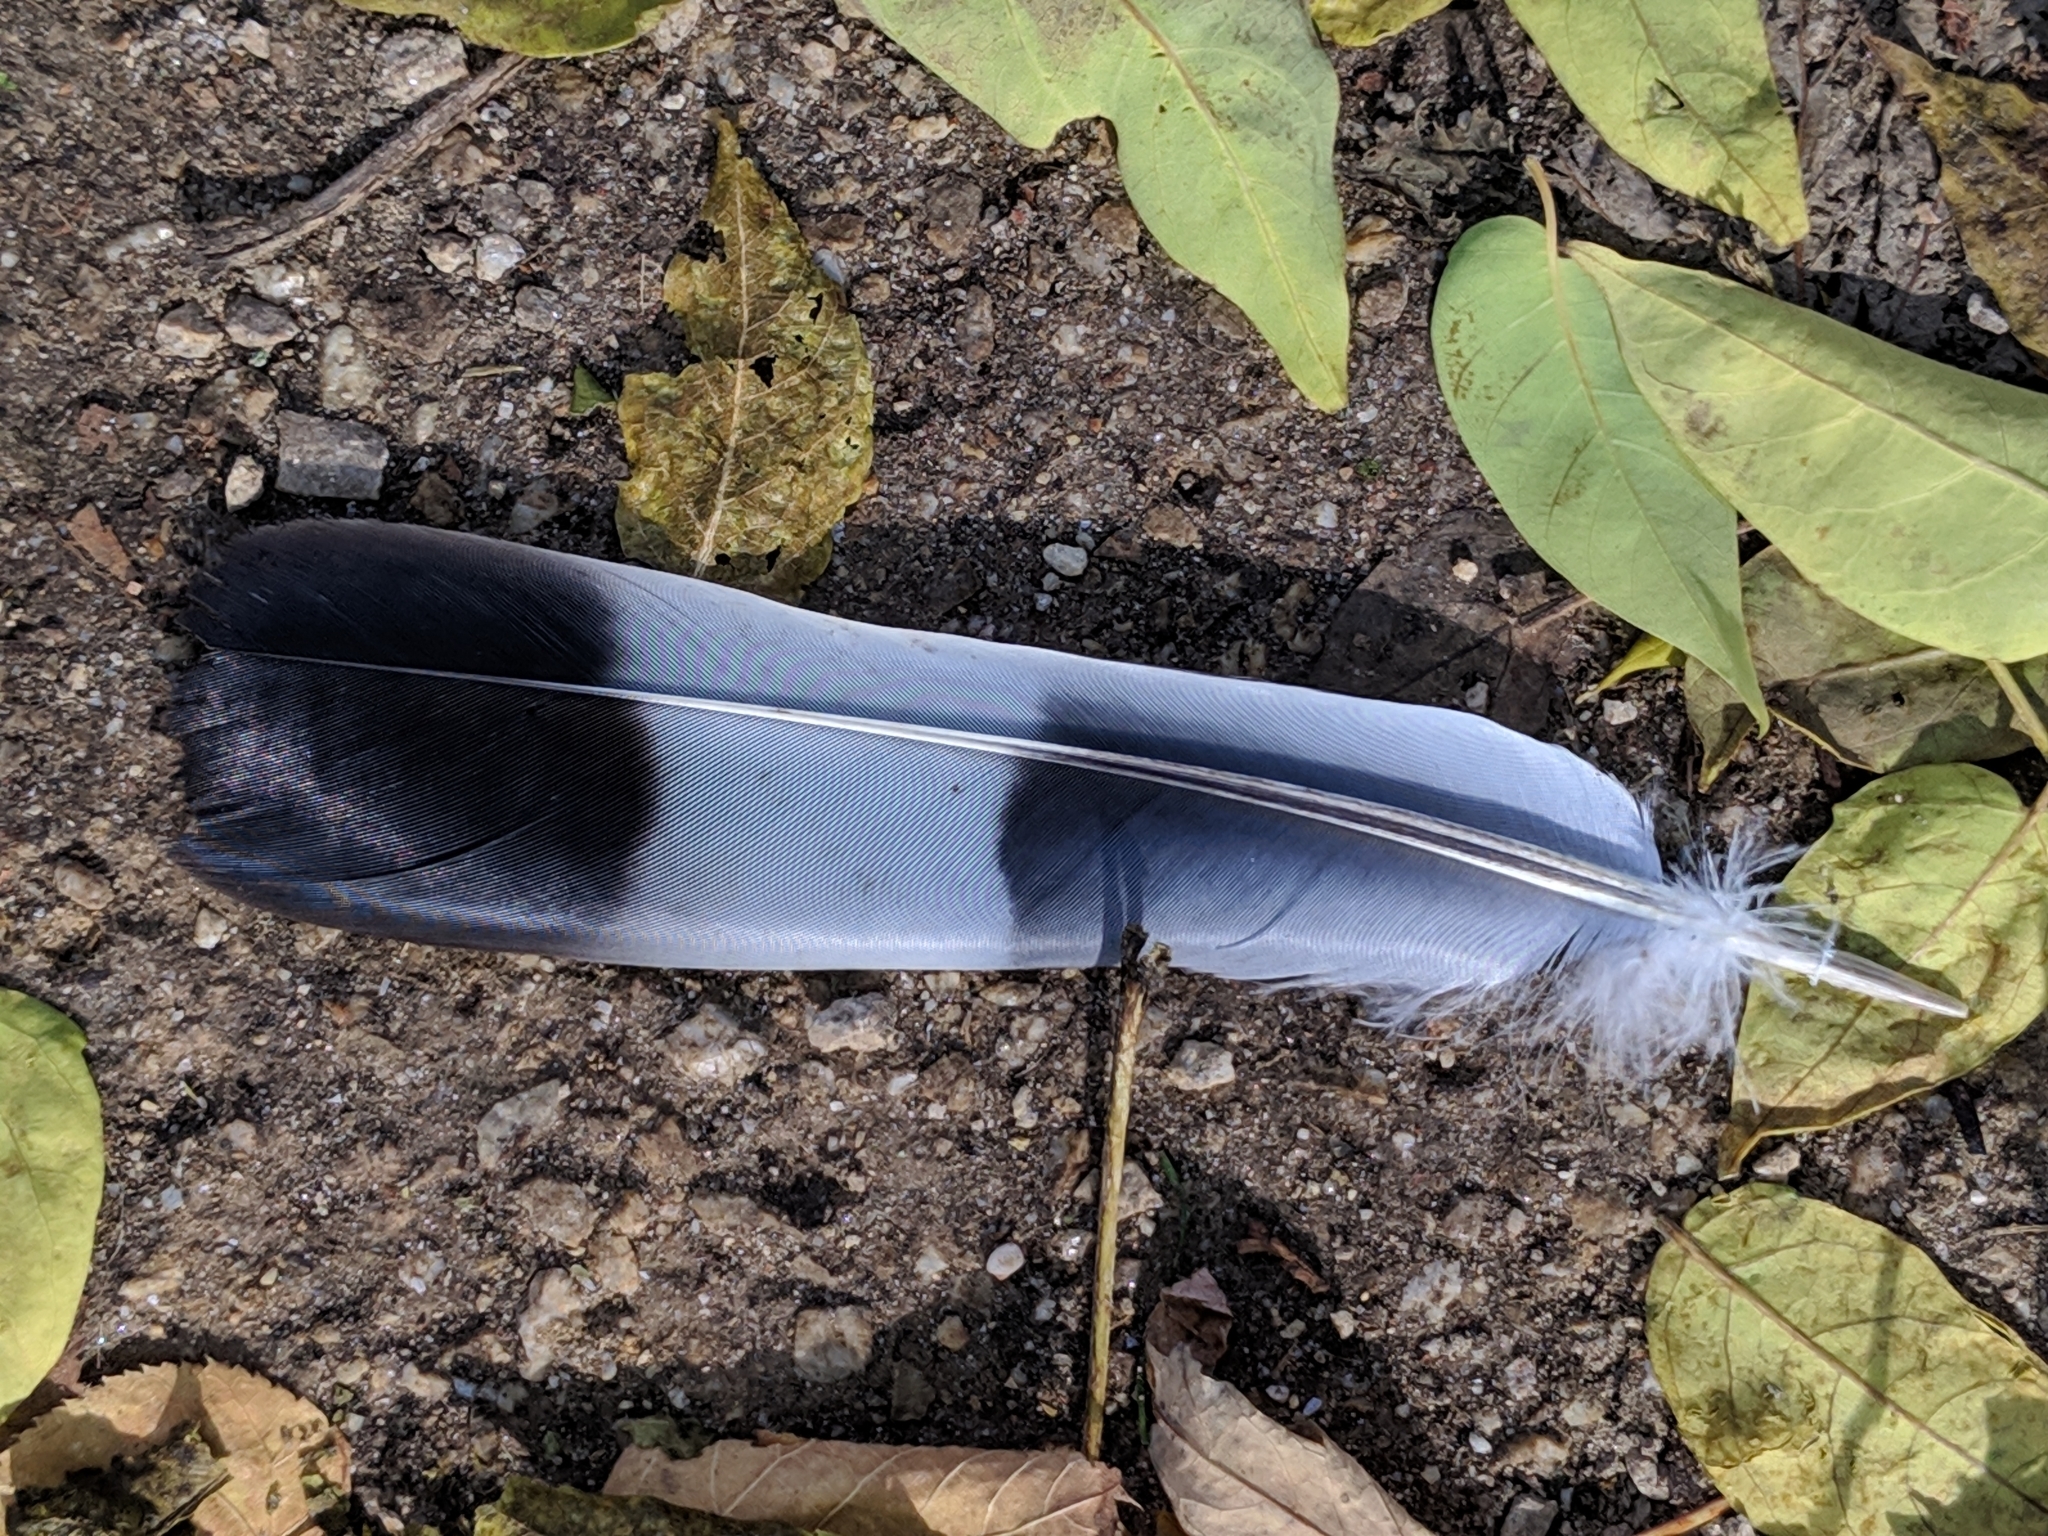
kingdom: Animalia
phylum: Chordata
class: Aves
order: Columbiformes
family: Columbidae
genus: Columba
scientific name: Columba palumbus
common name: Common wood pigeon
